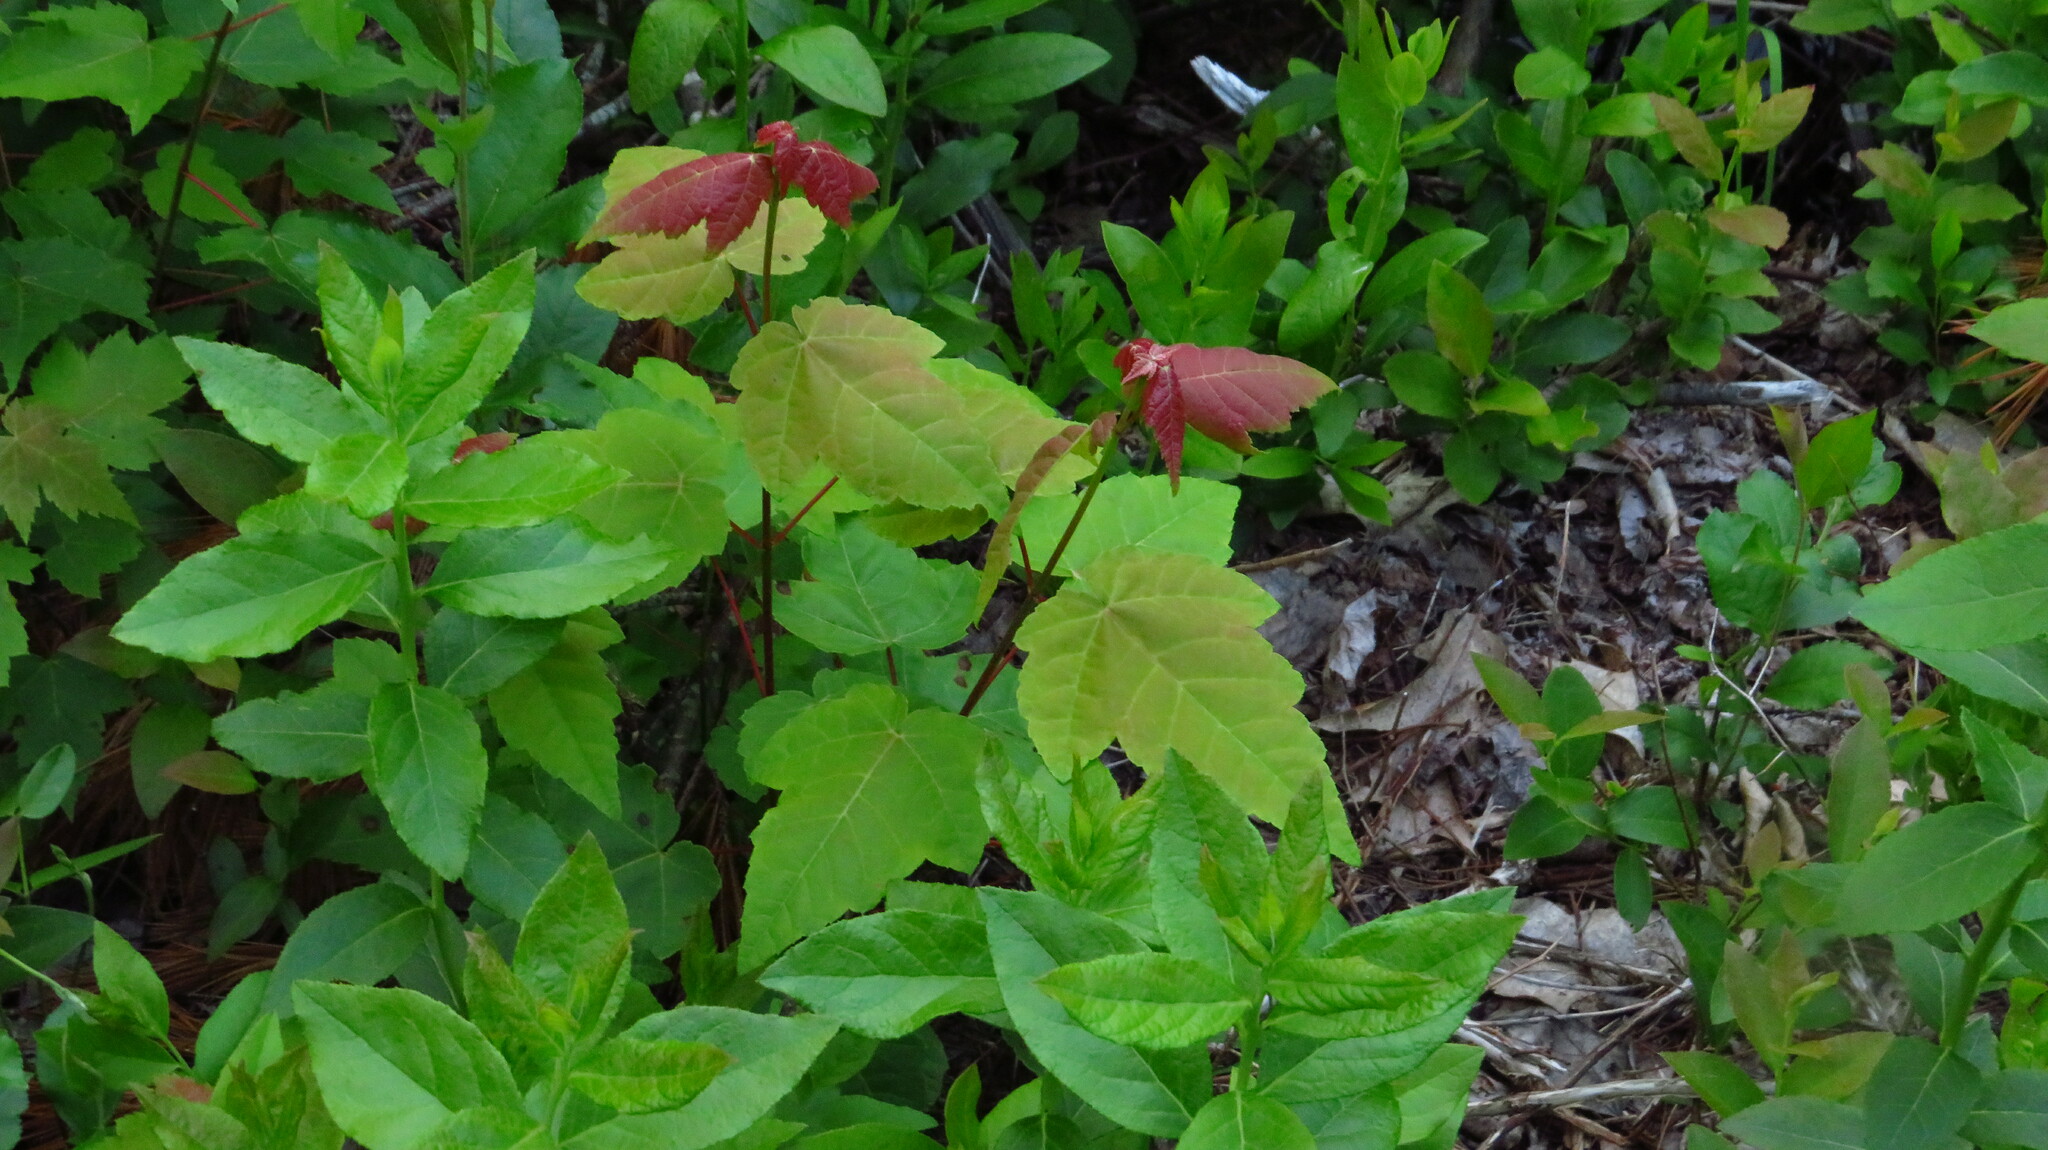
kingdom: Plantae
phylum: Tracheophyta
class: Magnoliopsida
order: Sapindales
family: Sapindaceae
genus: Acer
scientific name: Acer rubrum
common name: Red maple
